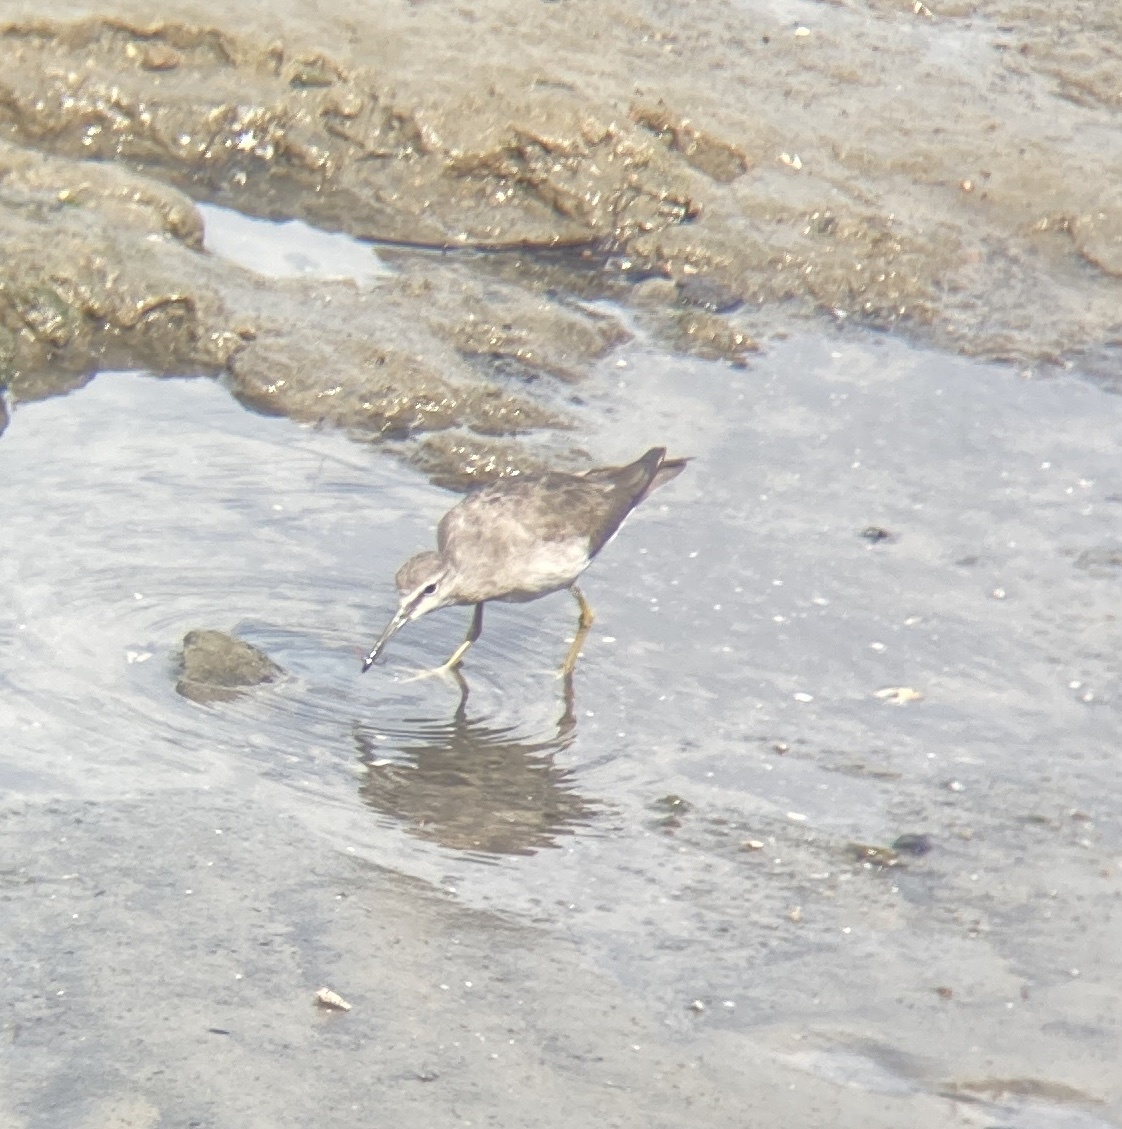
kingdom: Animalia
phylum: Chordata
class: Aves
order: Charadriiformes
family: Scolopacidae
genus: Tringa
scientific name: Tringa brevipes
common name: Grey-tailed tattler
